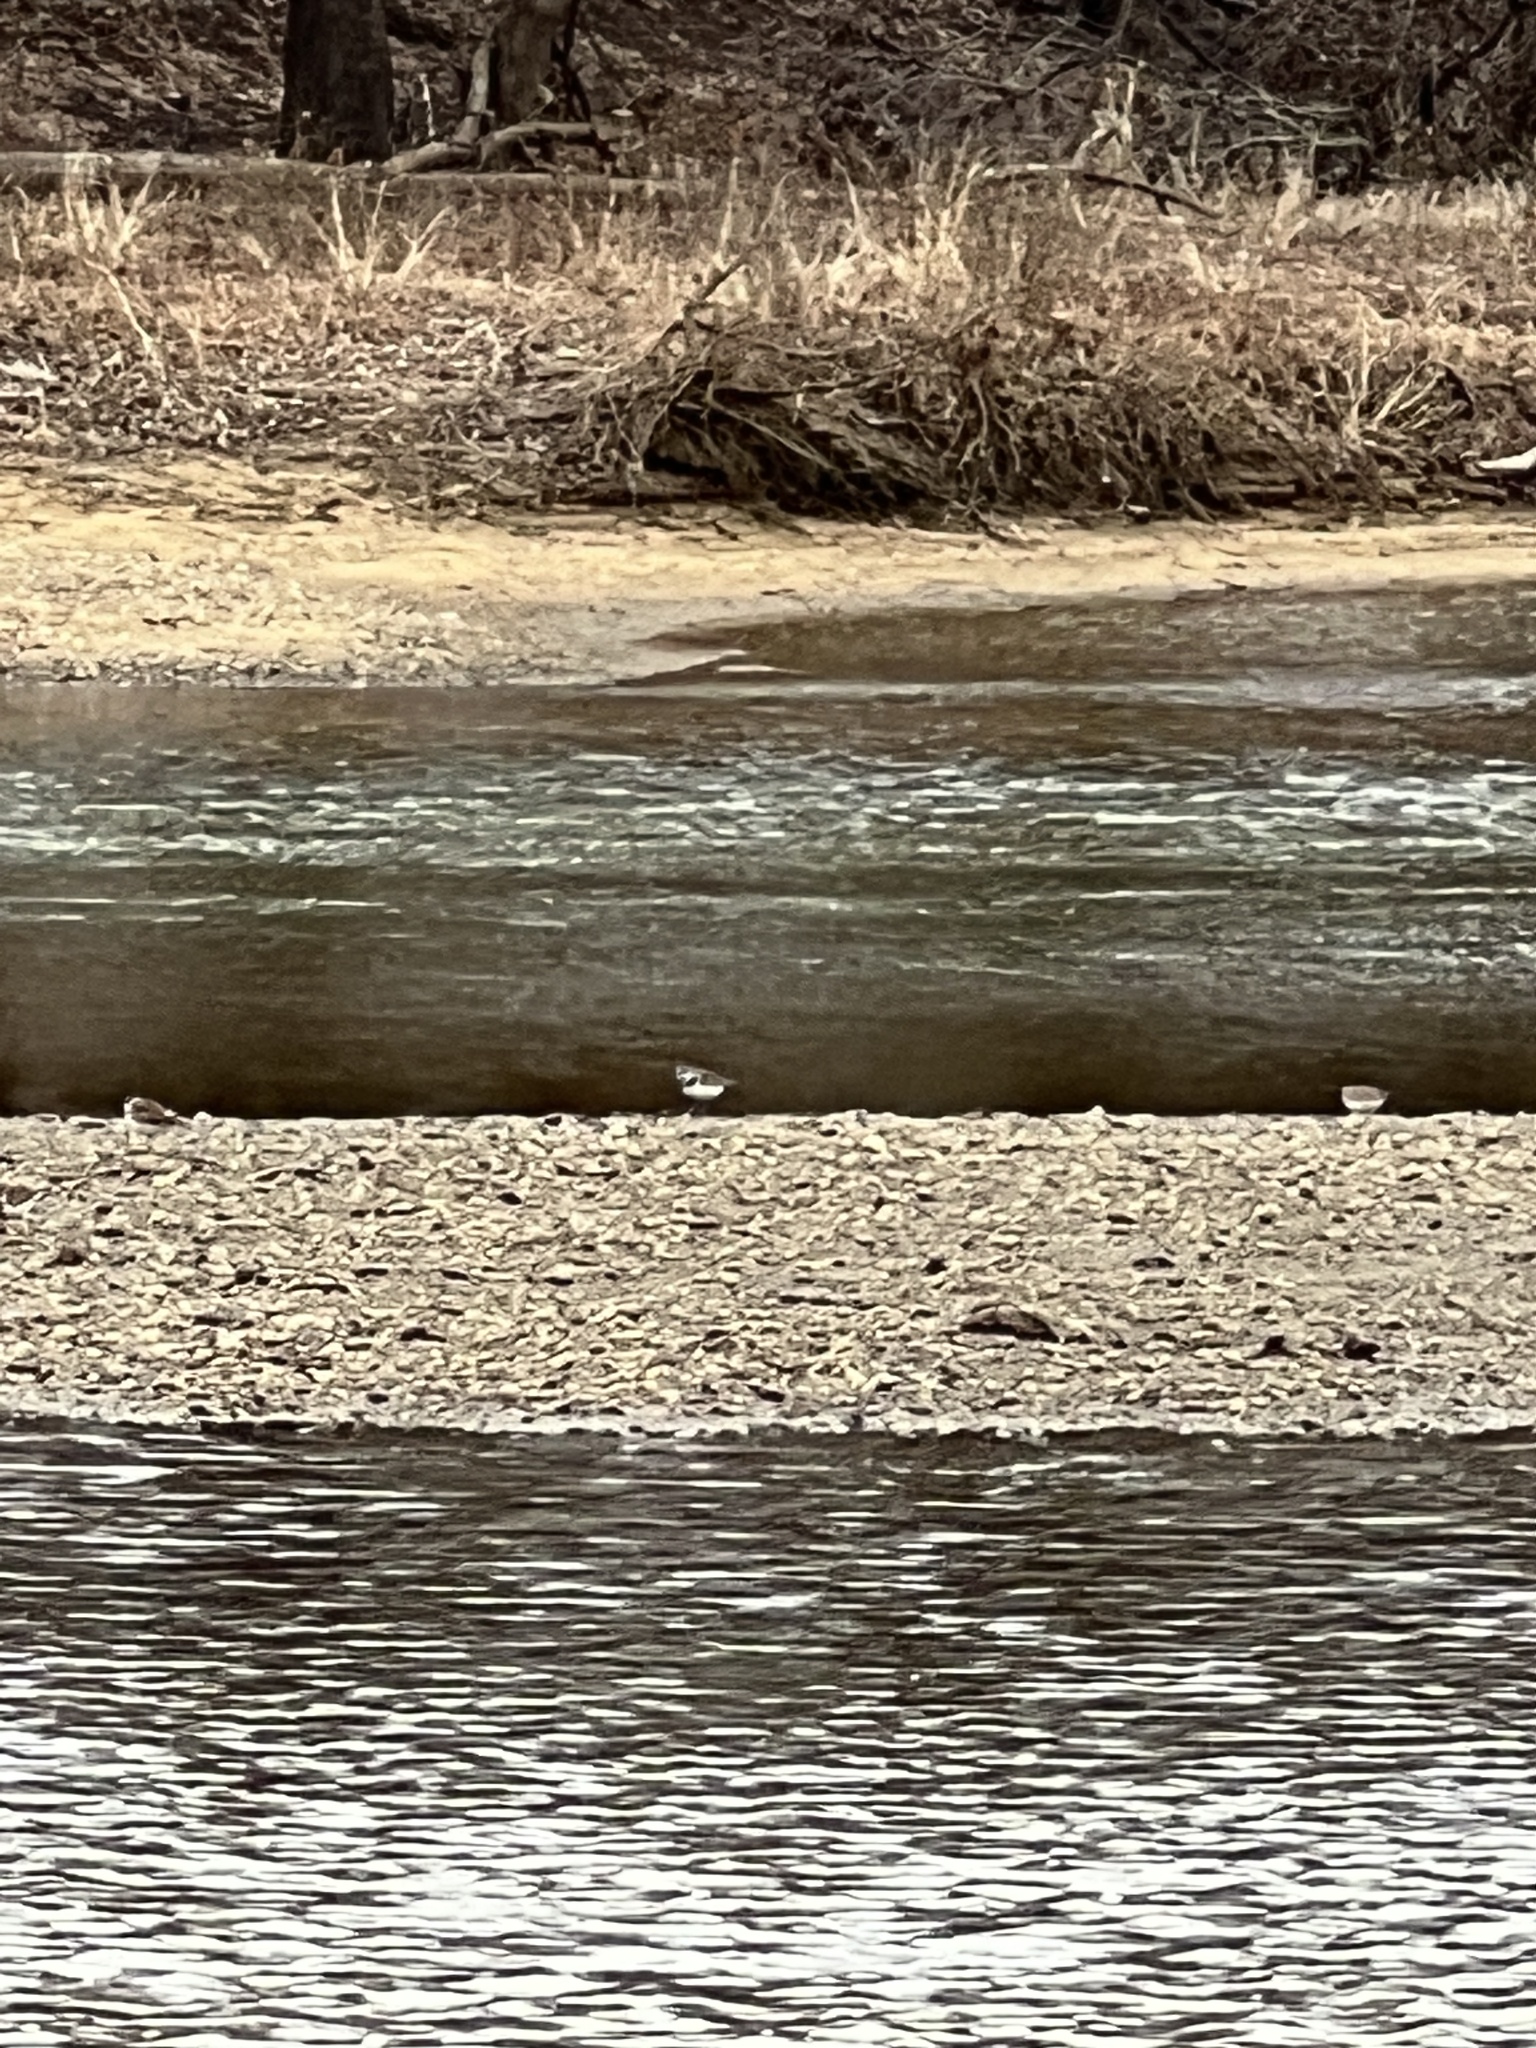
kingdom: Animalia
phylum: Chordata
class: Aves
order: Charadriiformes
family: Charadriidae
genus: Charadrius
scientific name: Charadrius vociferus
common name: Killdeer
